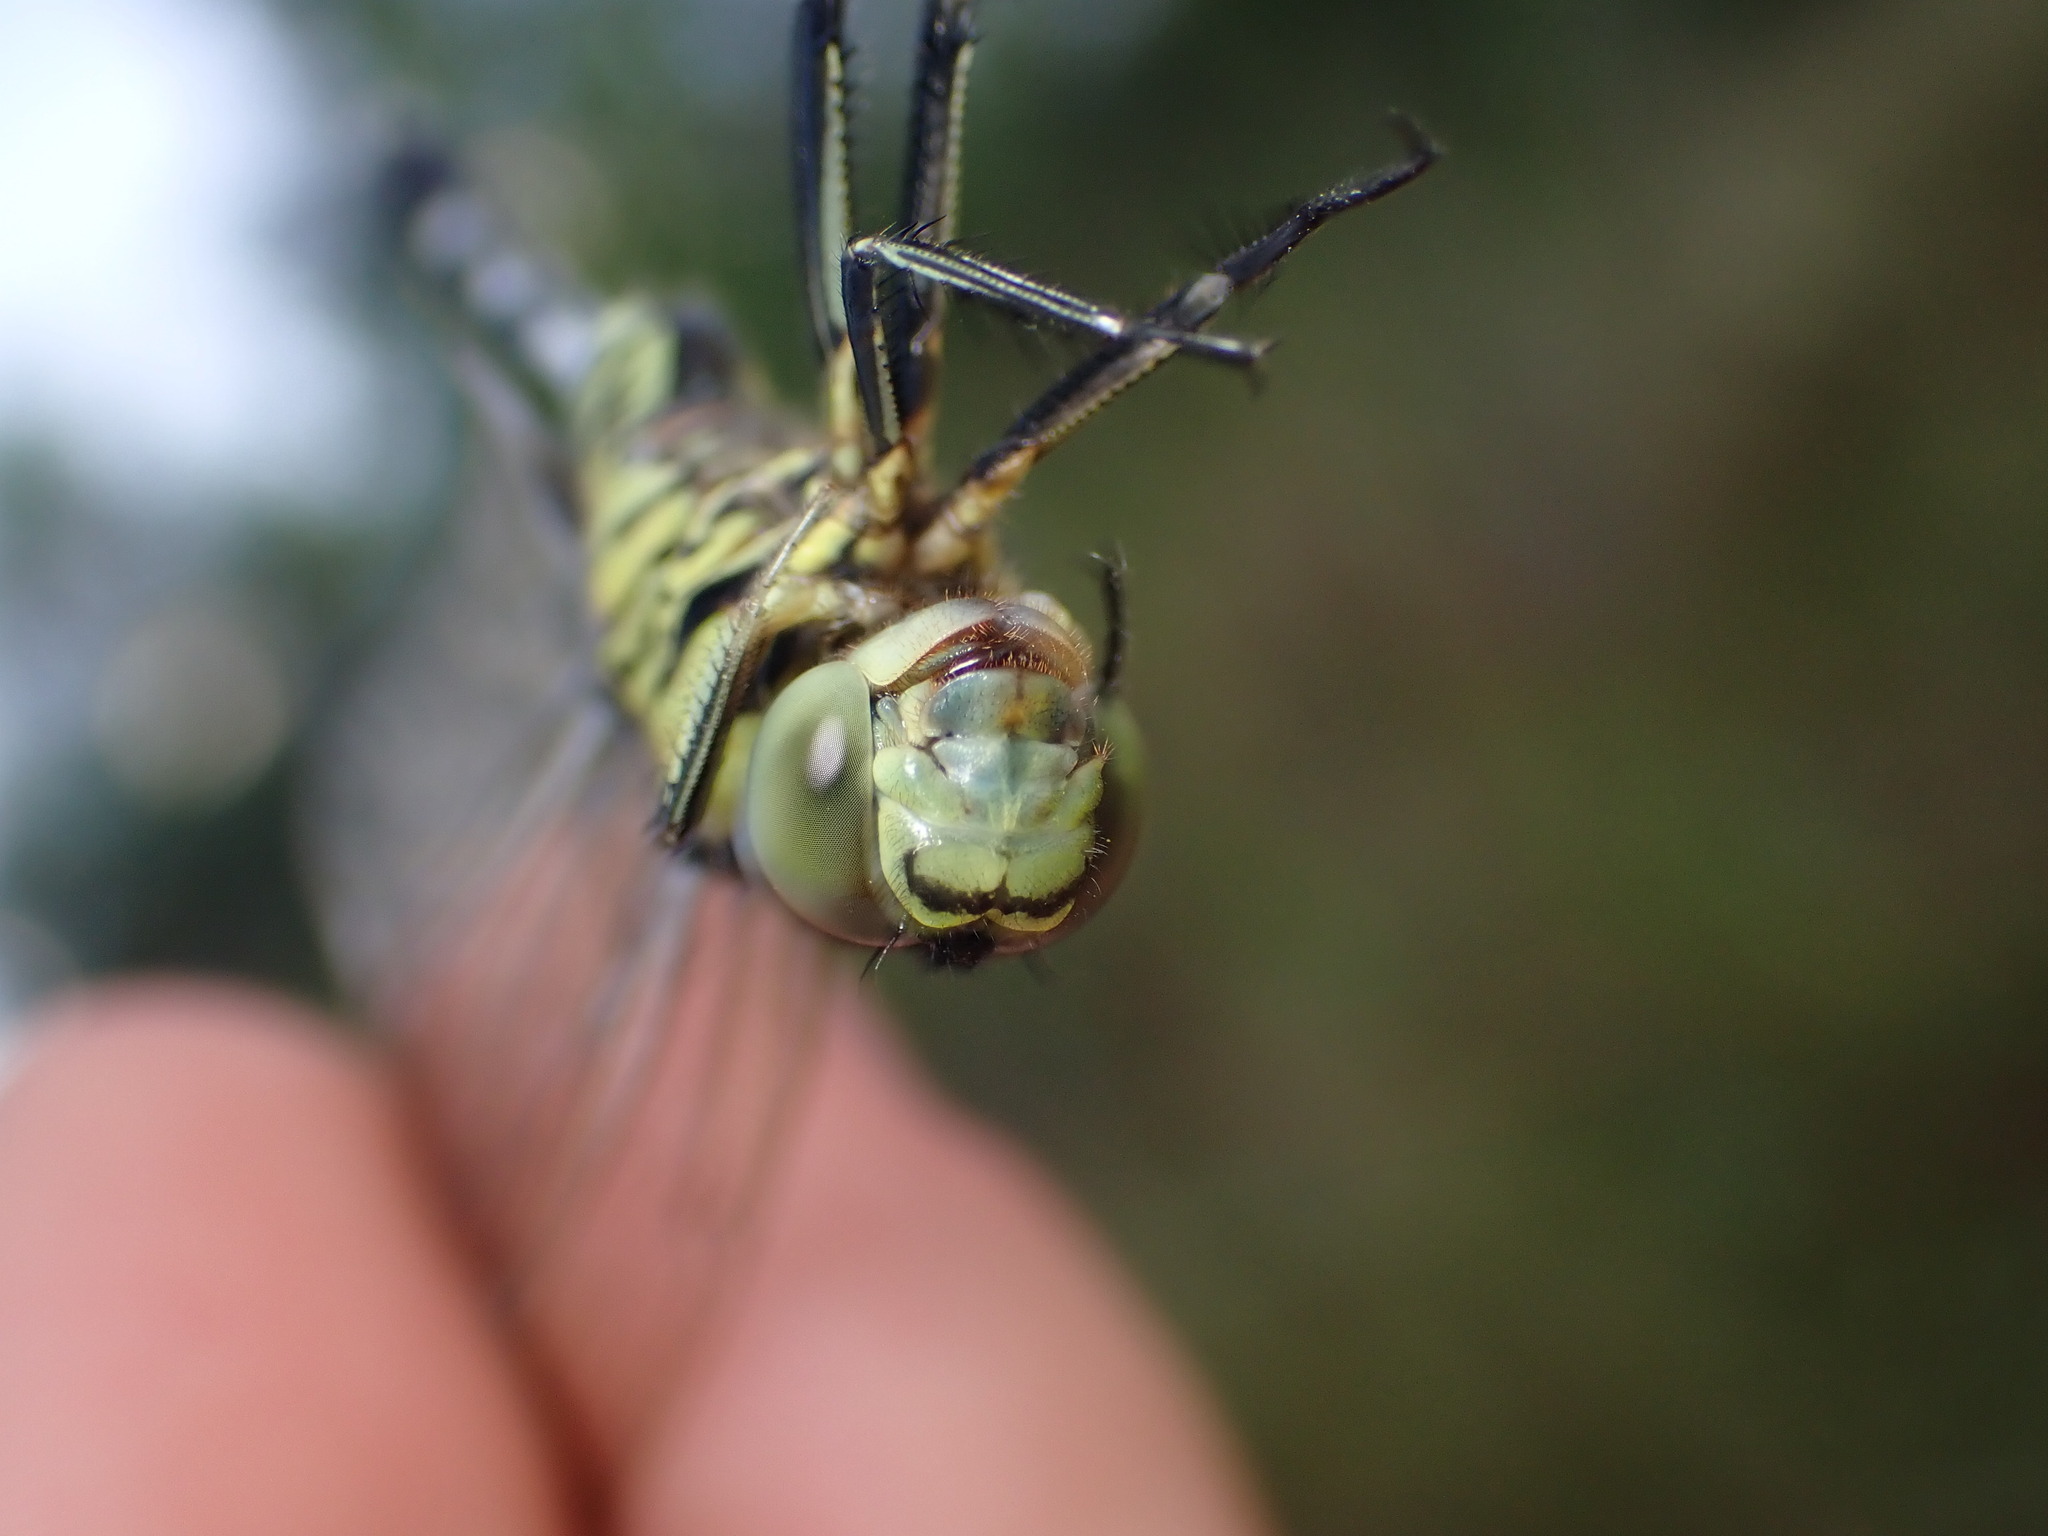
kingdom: Animalia
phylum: Arthropoda
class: Insecta
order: Odonata
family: Libellulidae
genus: Orthetrum
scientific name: Orthetrum sabina
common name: Slender skimmer
